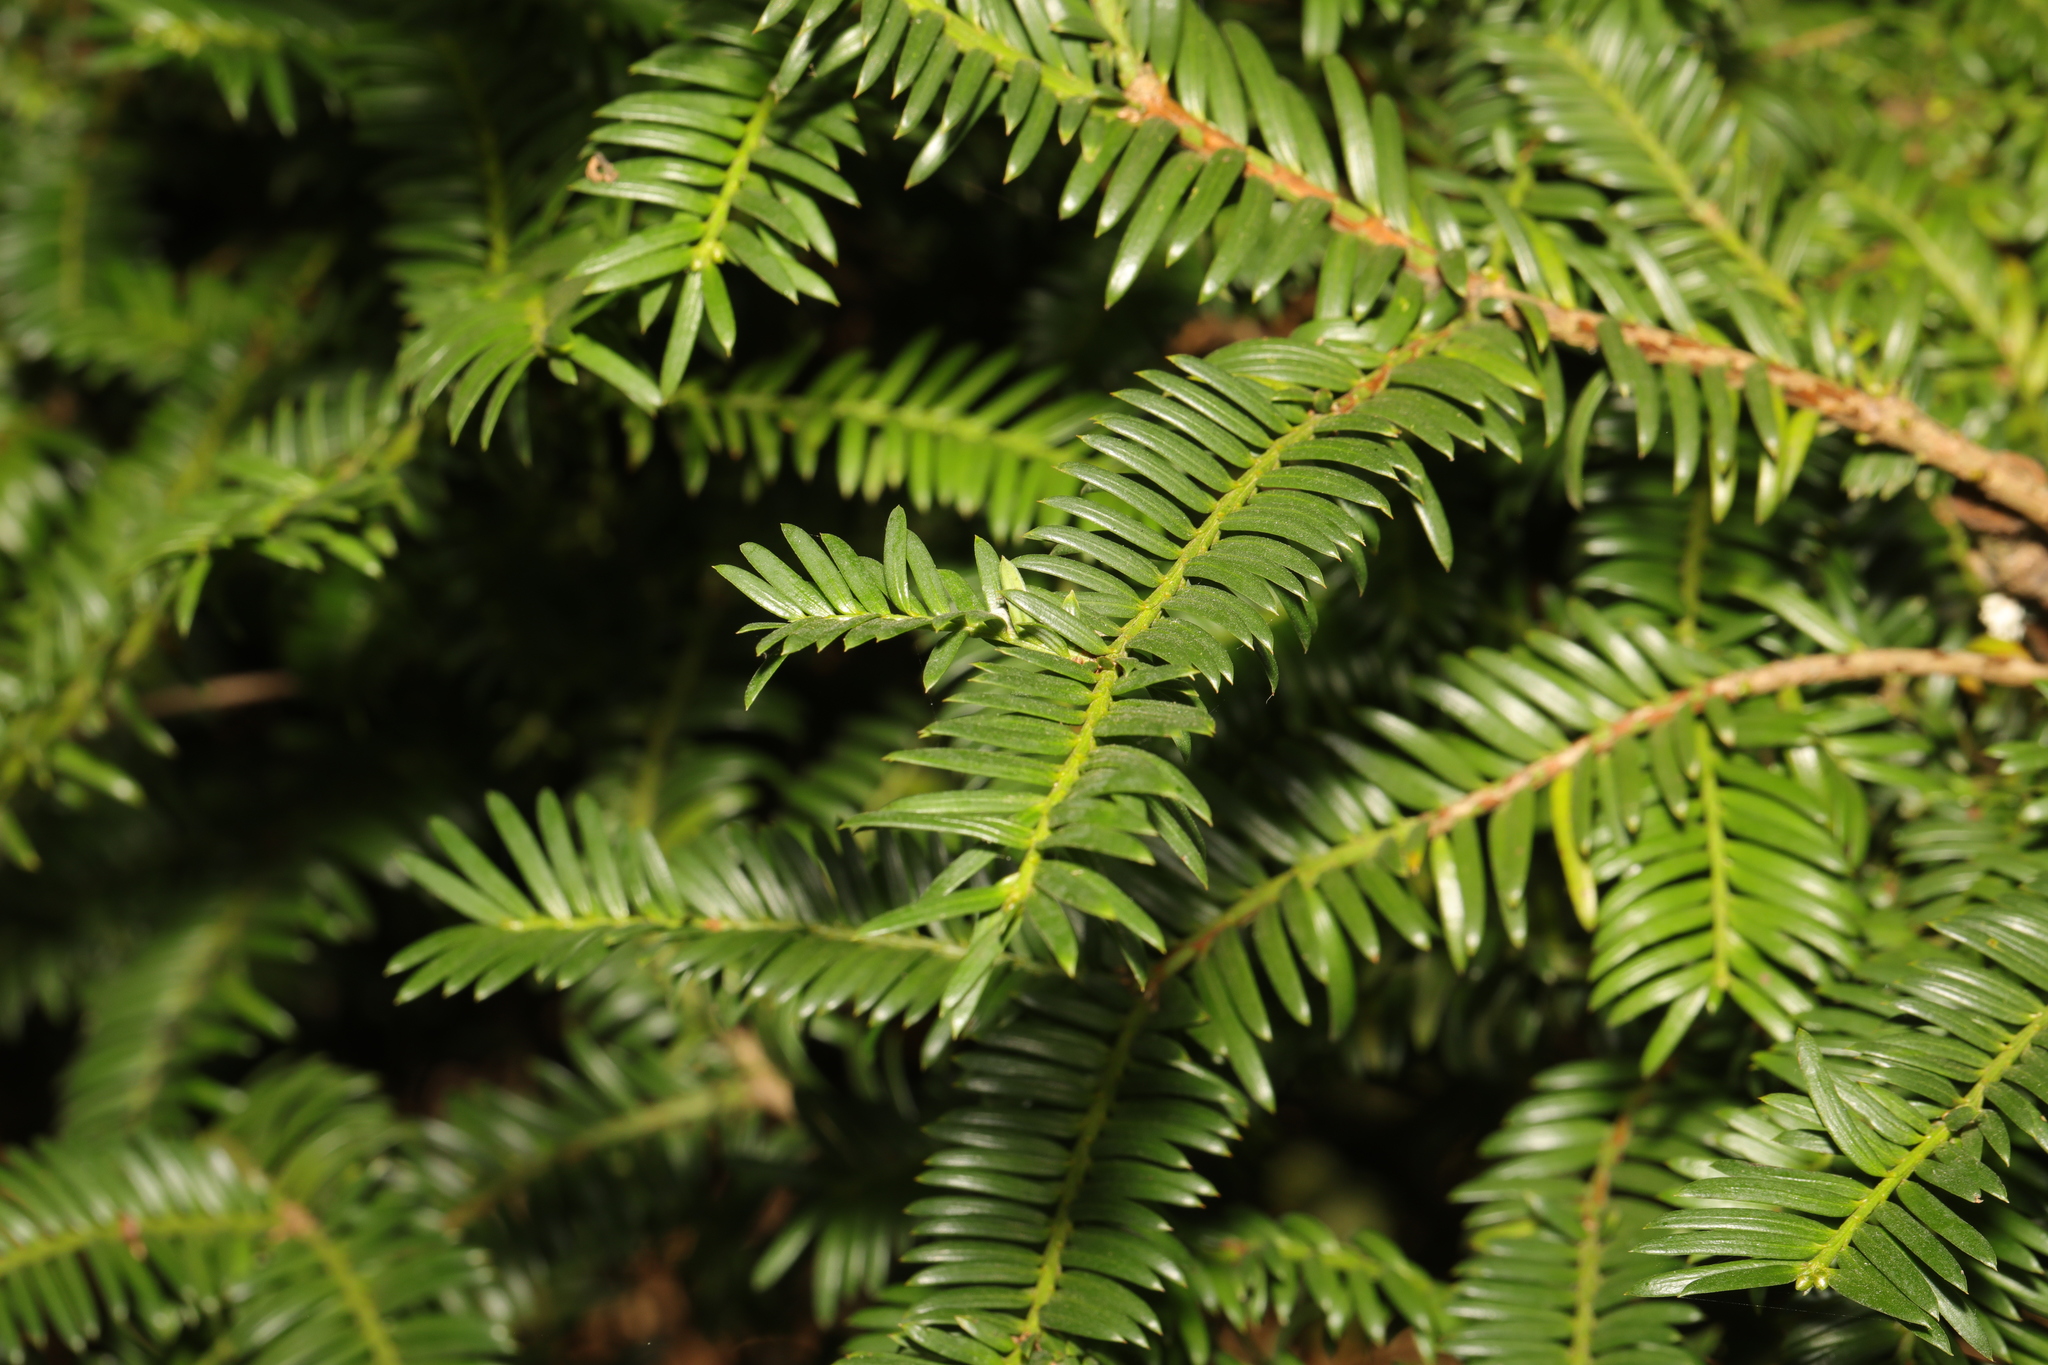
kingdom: Plantae
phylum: Tracheophyta
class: Pinopsida
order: Pinales
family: Taxaceae
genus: Taxus
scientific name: Taxus baccata
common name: Yew
